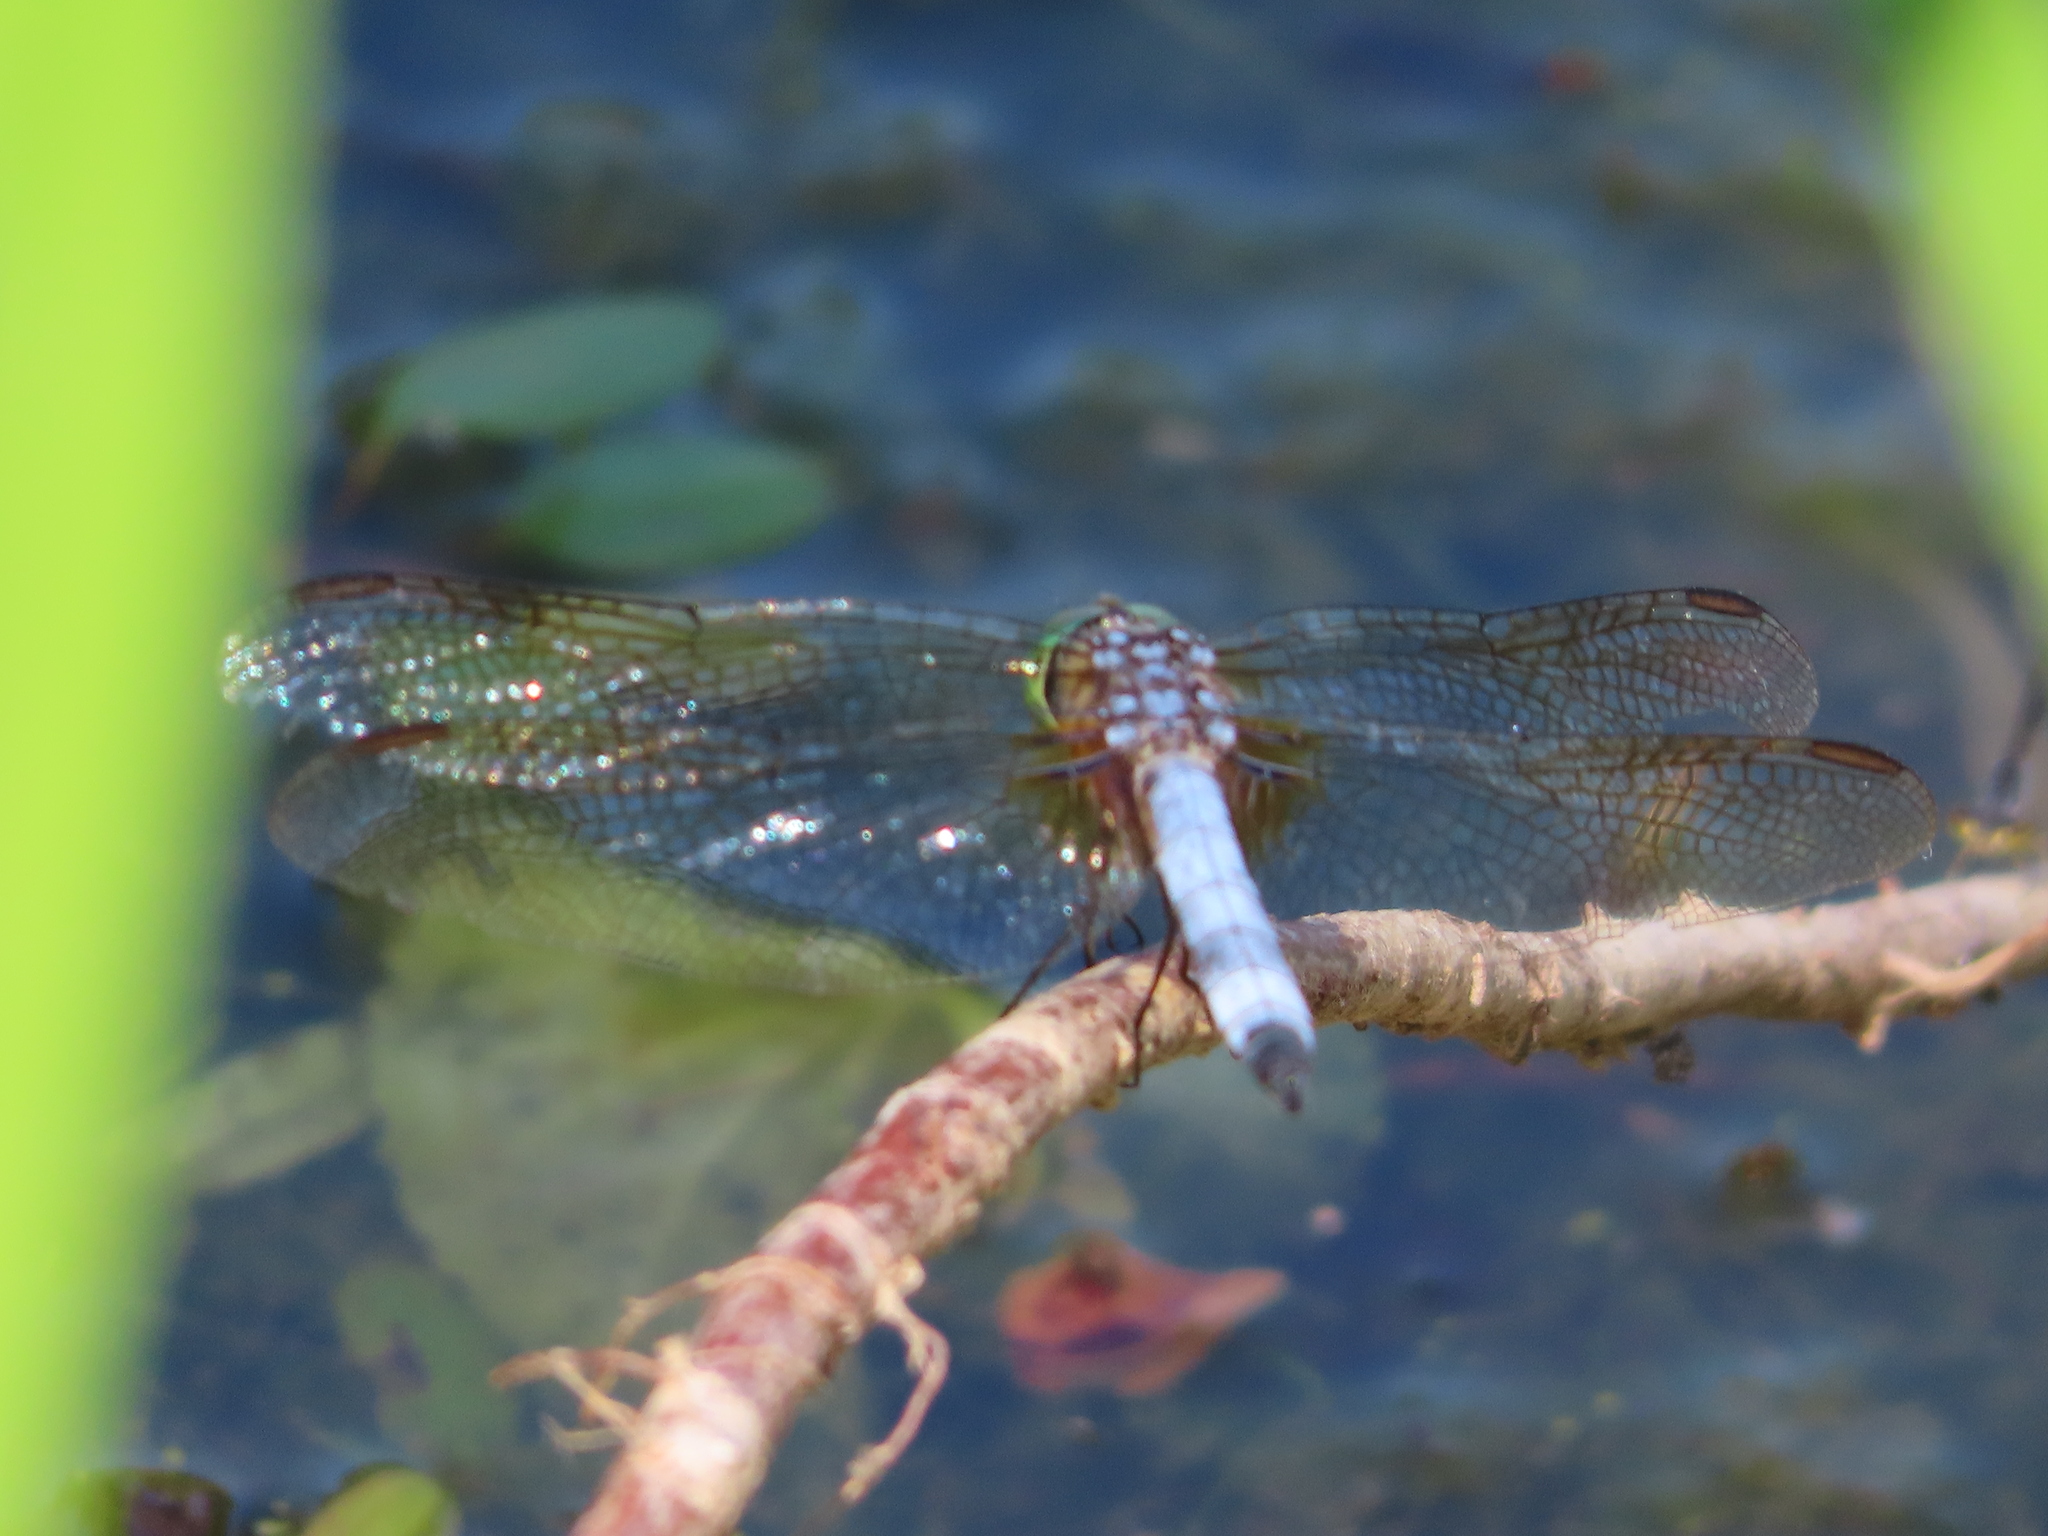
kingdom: Animalia
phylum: Arthropoda
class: Insecta
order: Odonata
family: Libellulidae
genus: Pachydiplax
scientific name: Pachydiplax longipennis
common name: Blue dasher
